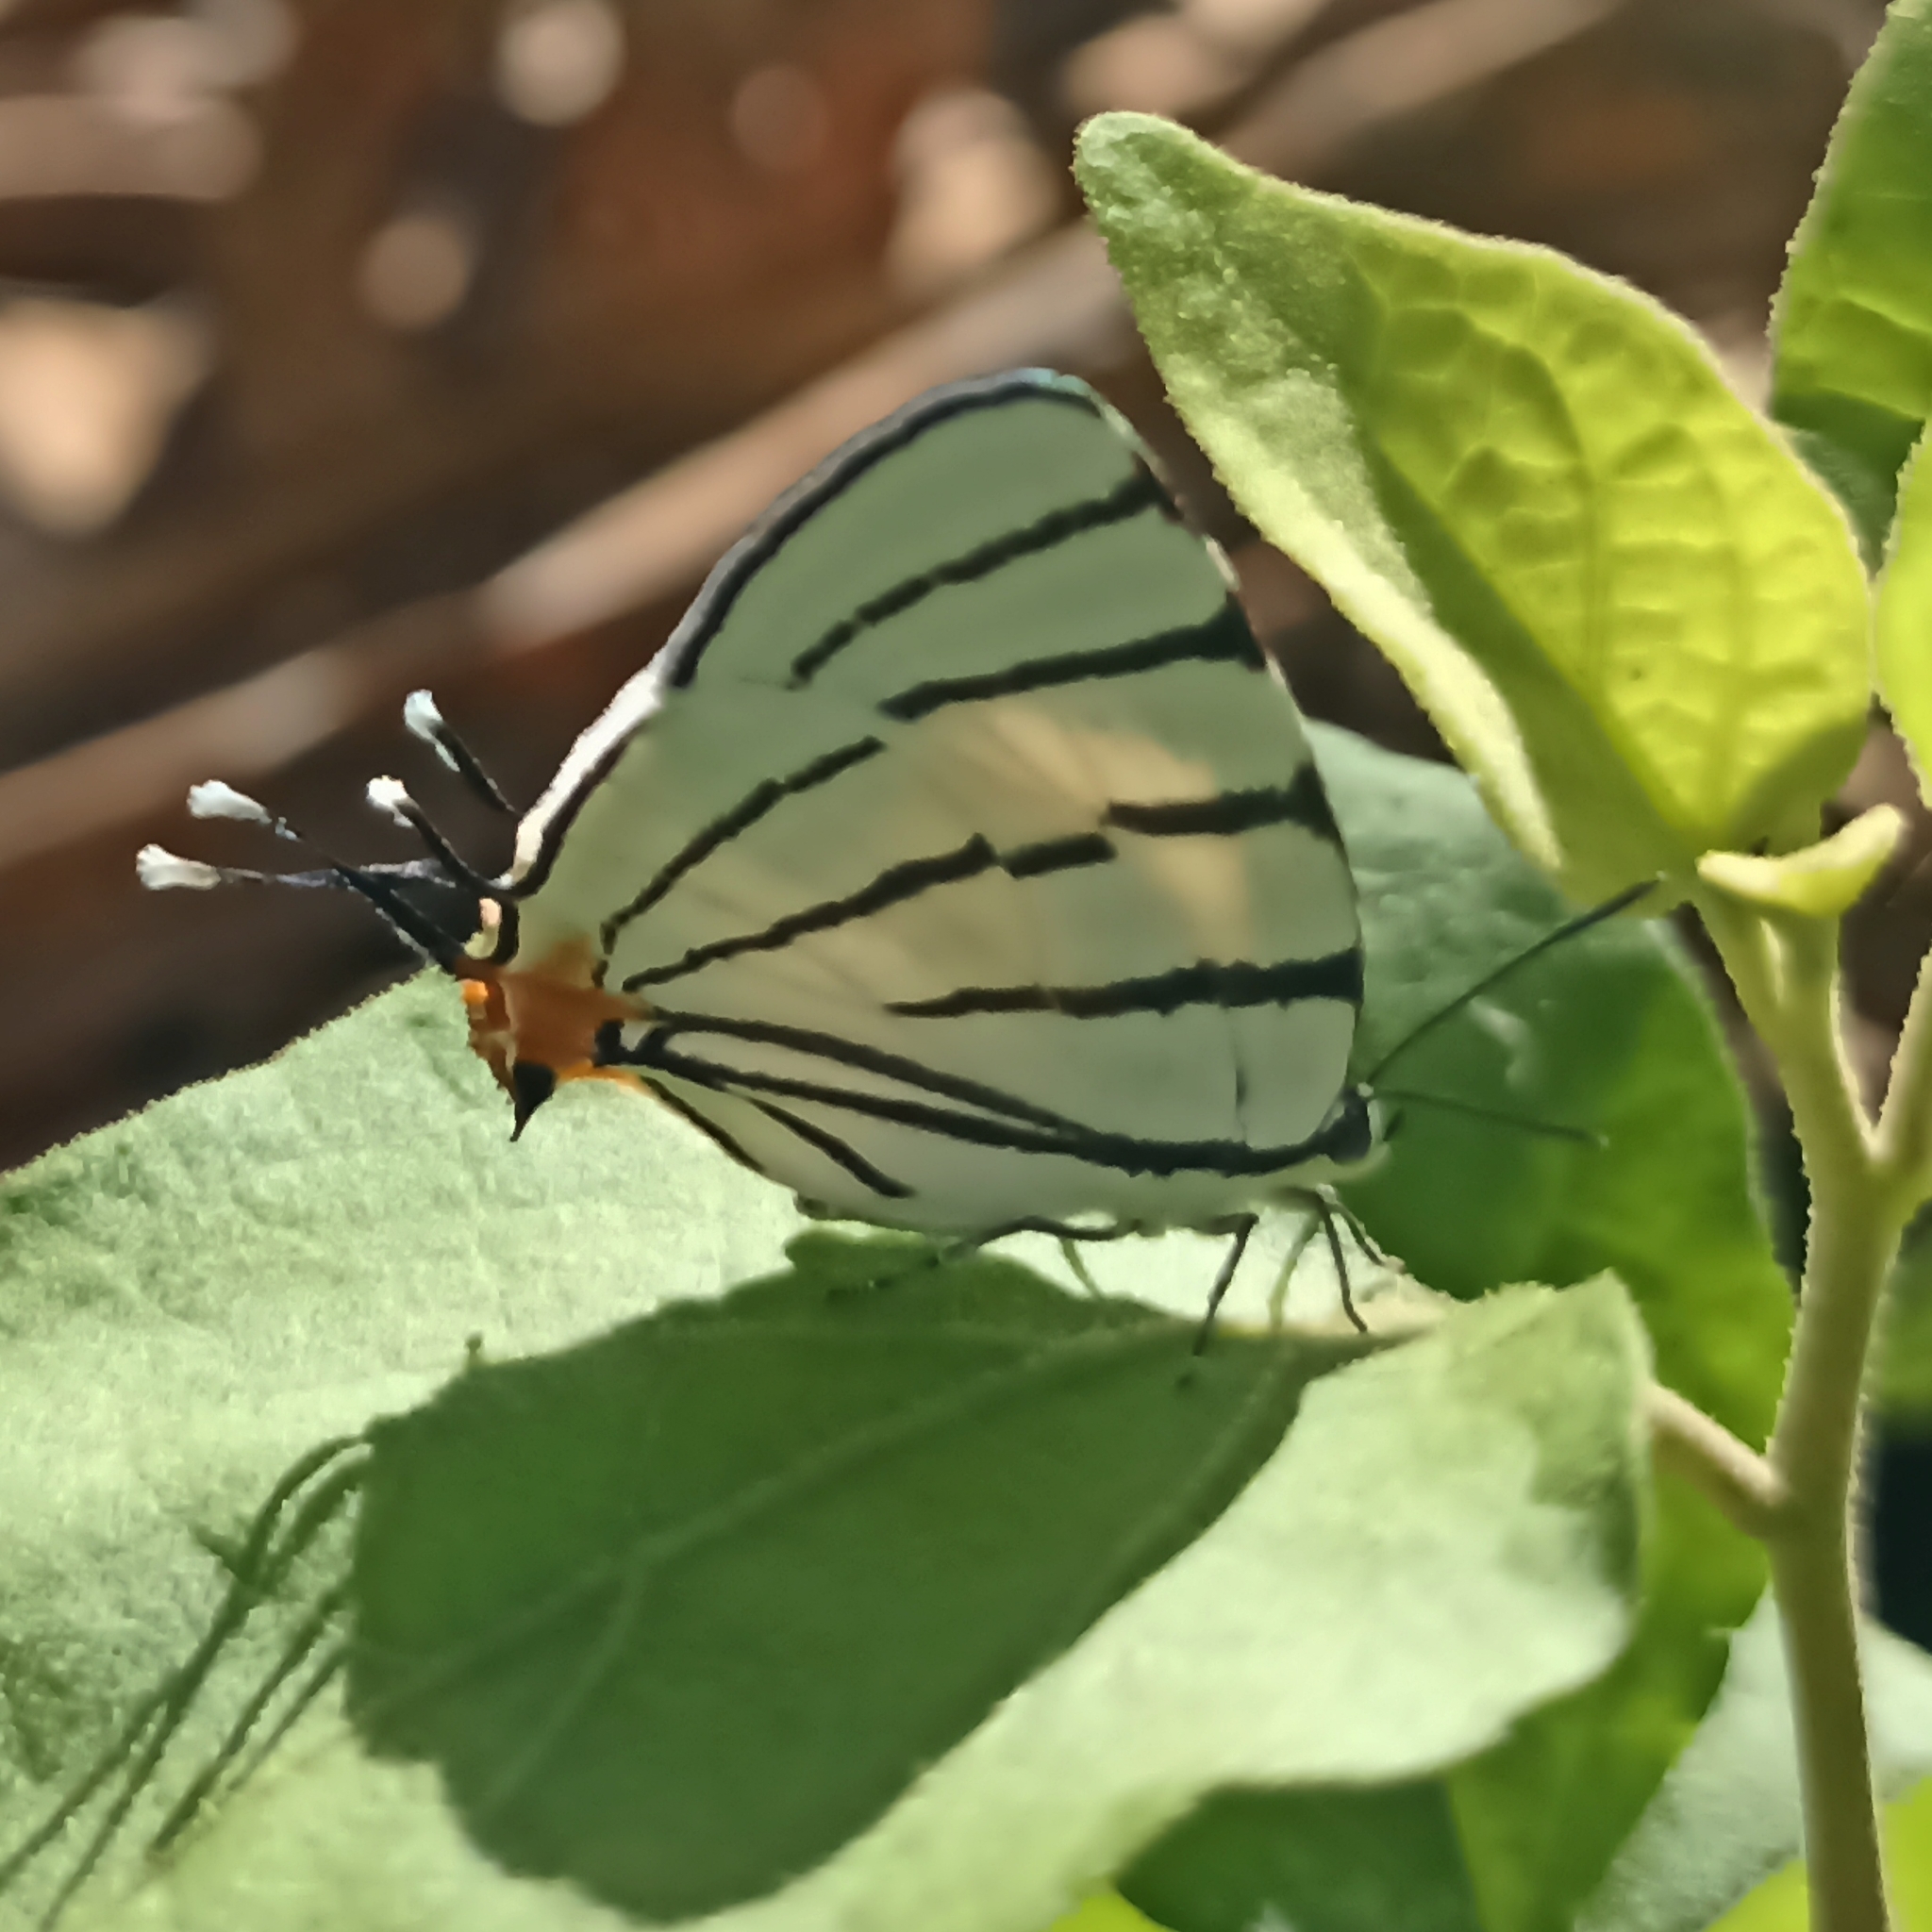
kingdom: Animalia
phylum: Arthropoda
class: Insecta
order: Lepidoptera
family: Lycaenidae
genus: Arawacus
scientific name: Arawacus sito
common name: Fine-lined hairstreak
